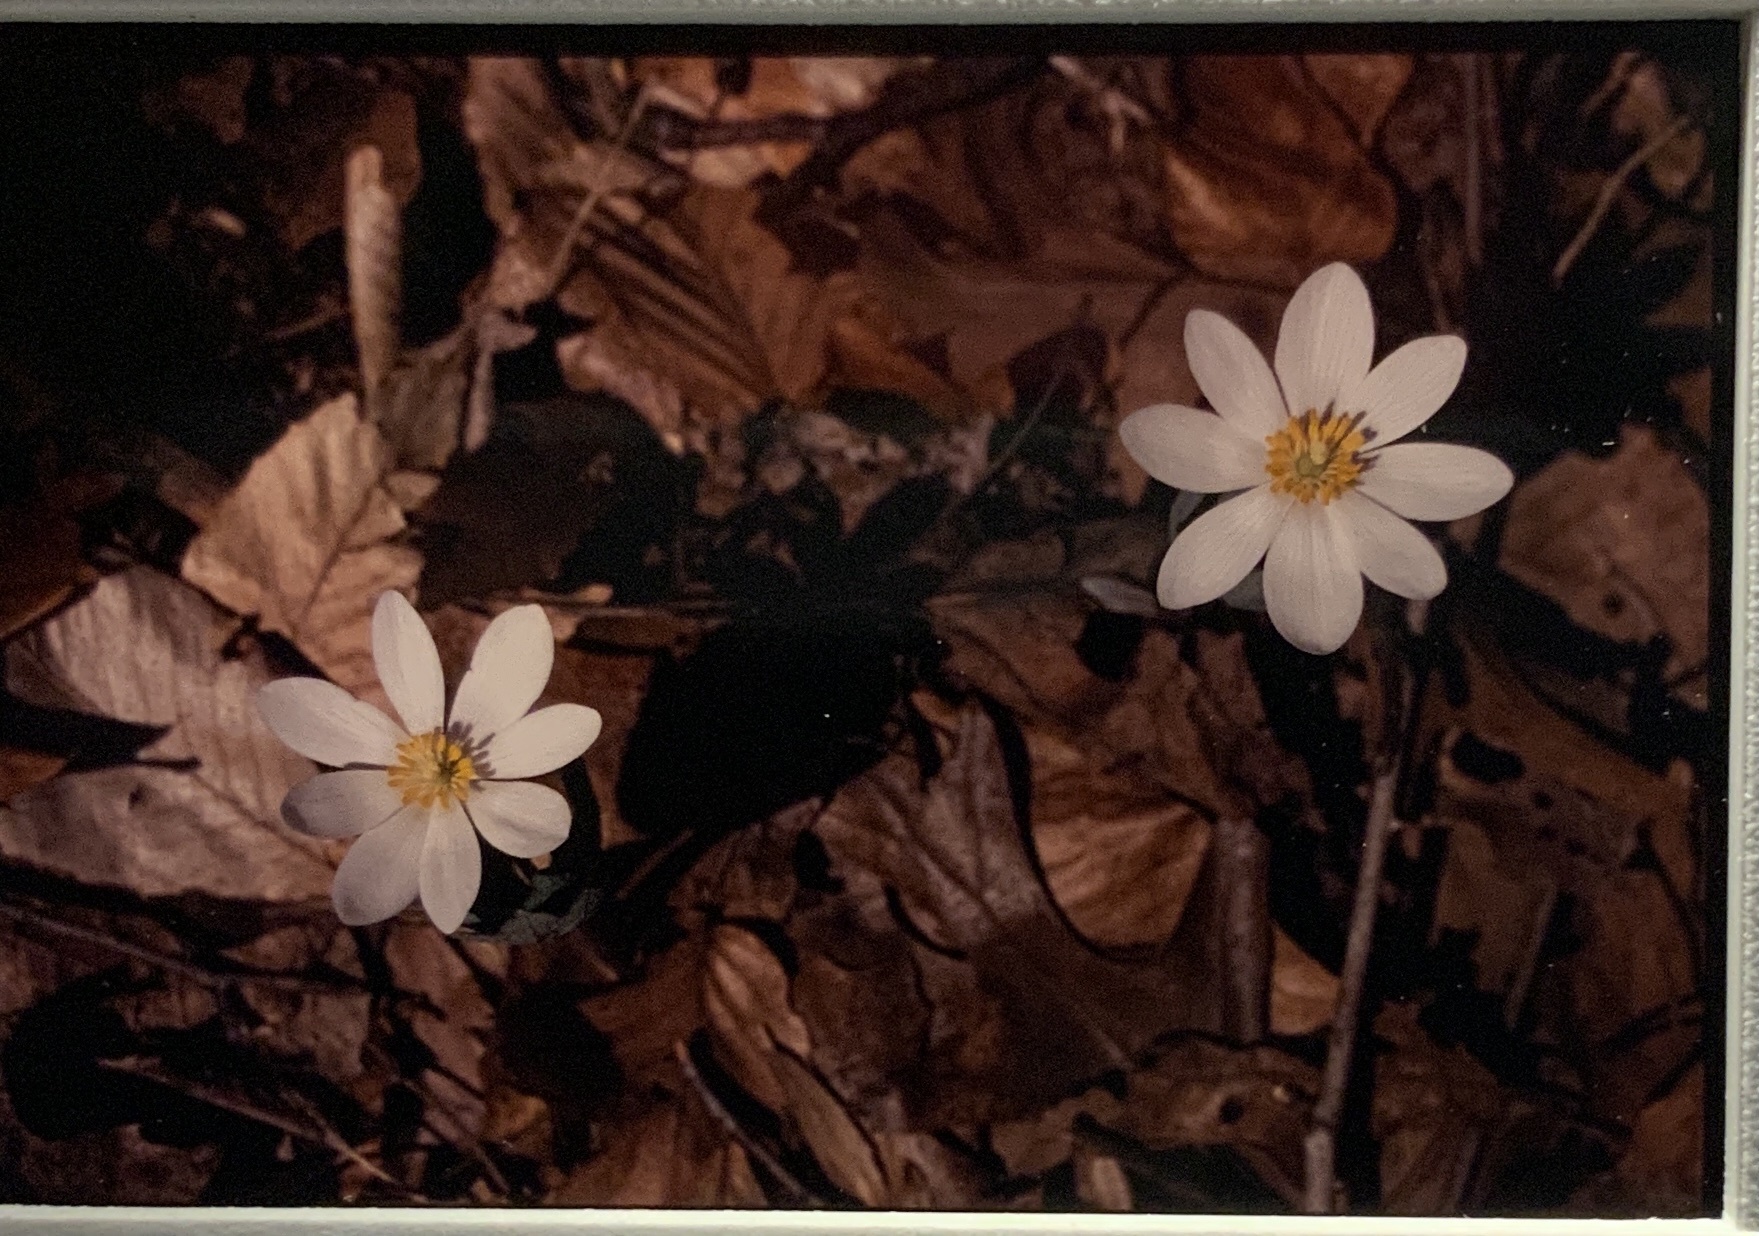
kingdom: Plantae
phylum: Tracheophyta
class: Magnoliopsida
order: Ranunculales
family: Papaveraceae
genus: Sanguinaria
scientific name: Sanguinaria canadensis
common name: Bloodroot
